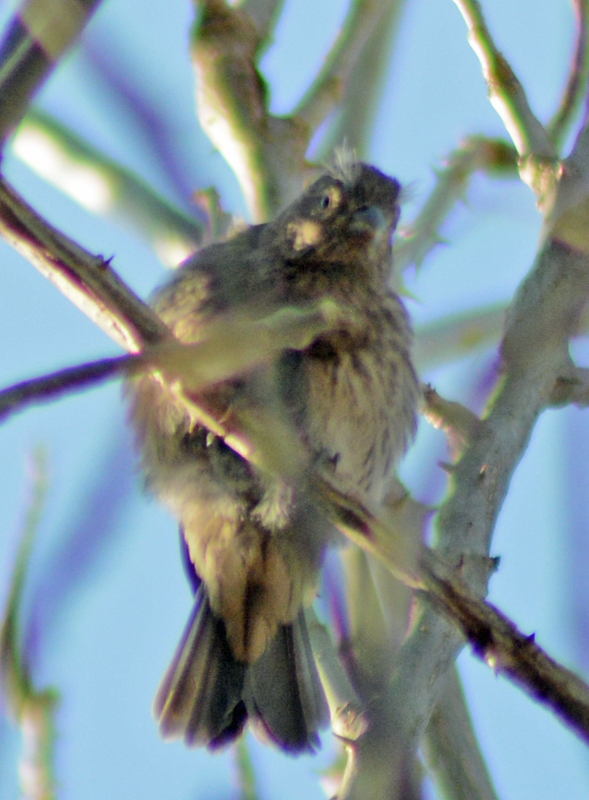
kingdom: Animalia
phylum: Chordata
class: Aves
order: Passeriformes
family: Fringillidae
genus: Haemorhous
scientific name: Haemorhous mexicanus
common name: House finch
